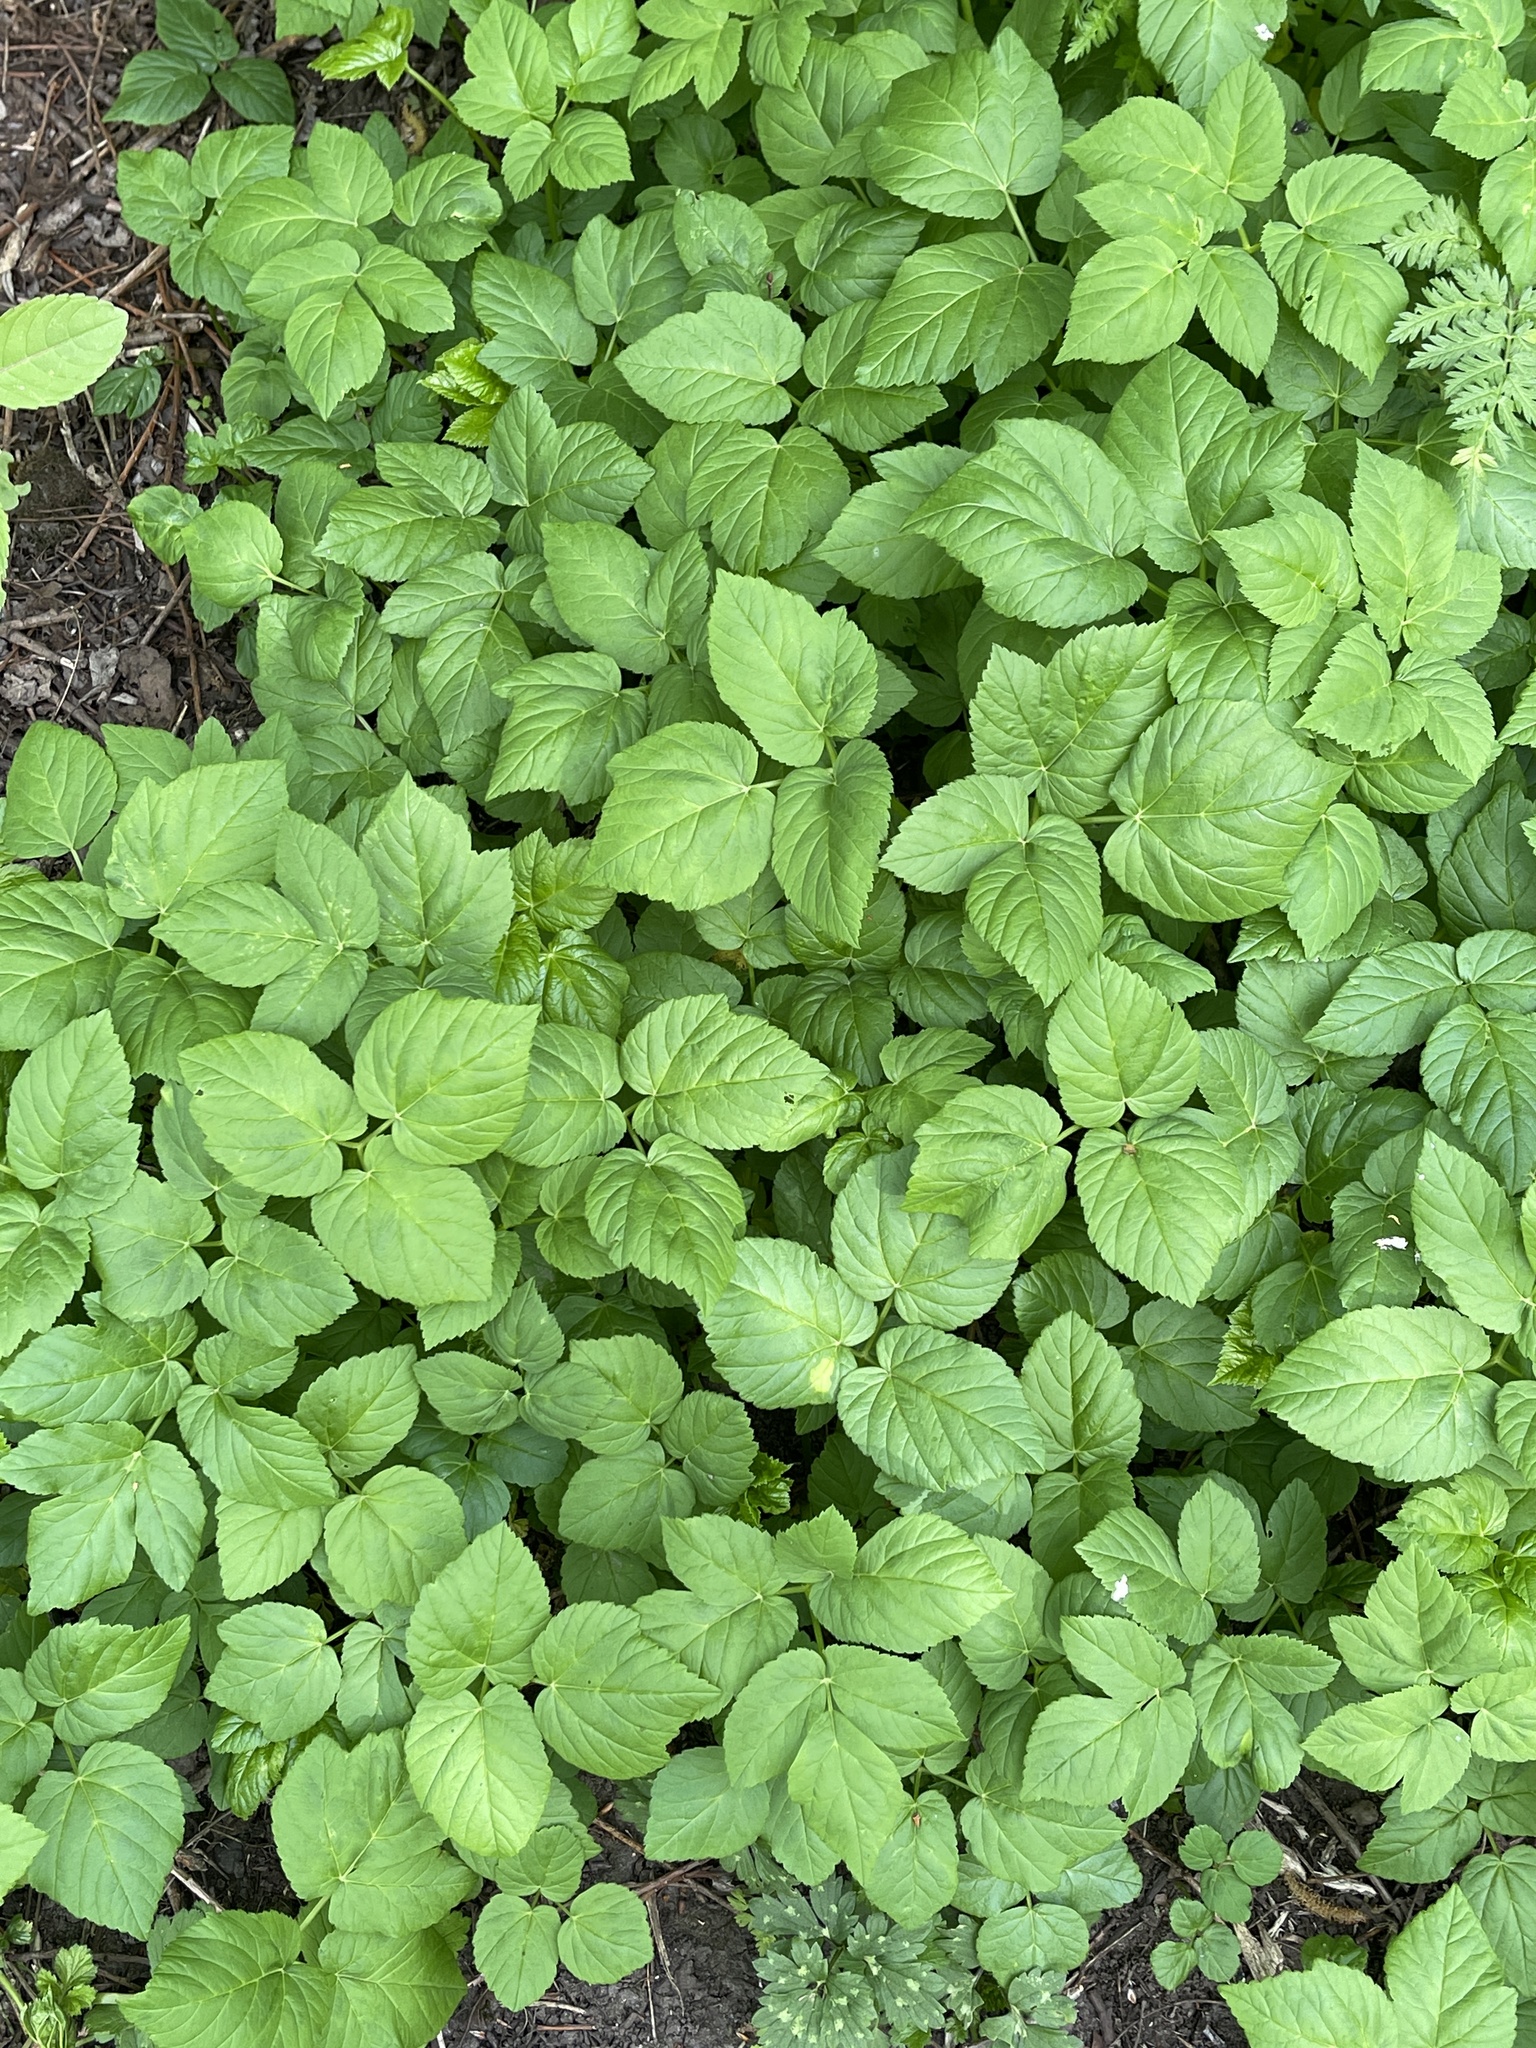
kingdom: Plantae
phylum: Tracheophyta
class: Magnoliopsida
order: Apiales
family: Apiaceae
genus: Aegopodium
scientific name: Aegopodium podagraria
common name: Ground-elder
